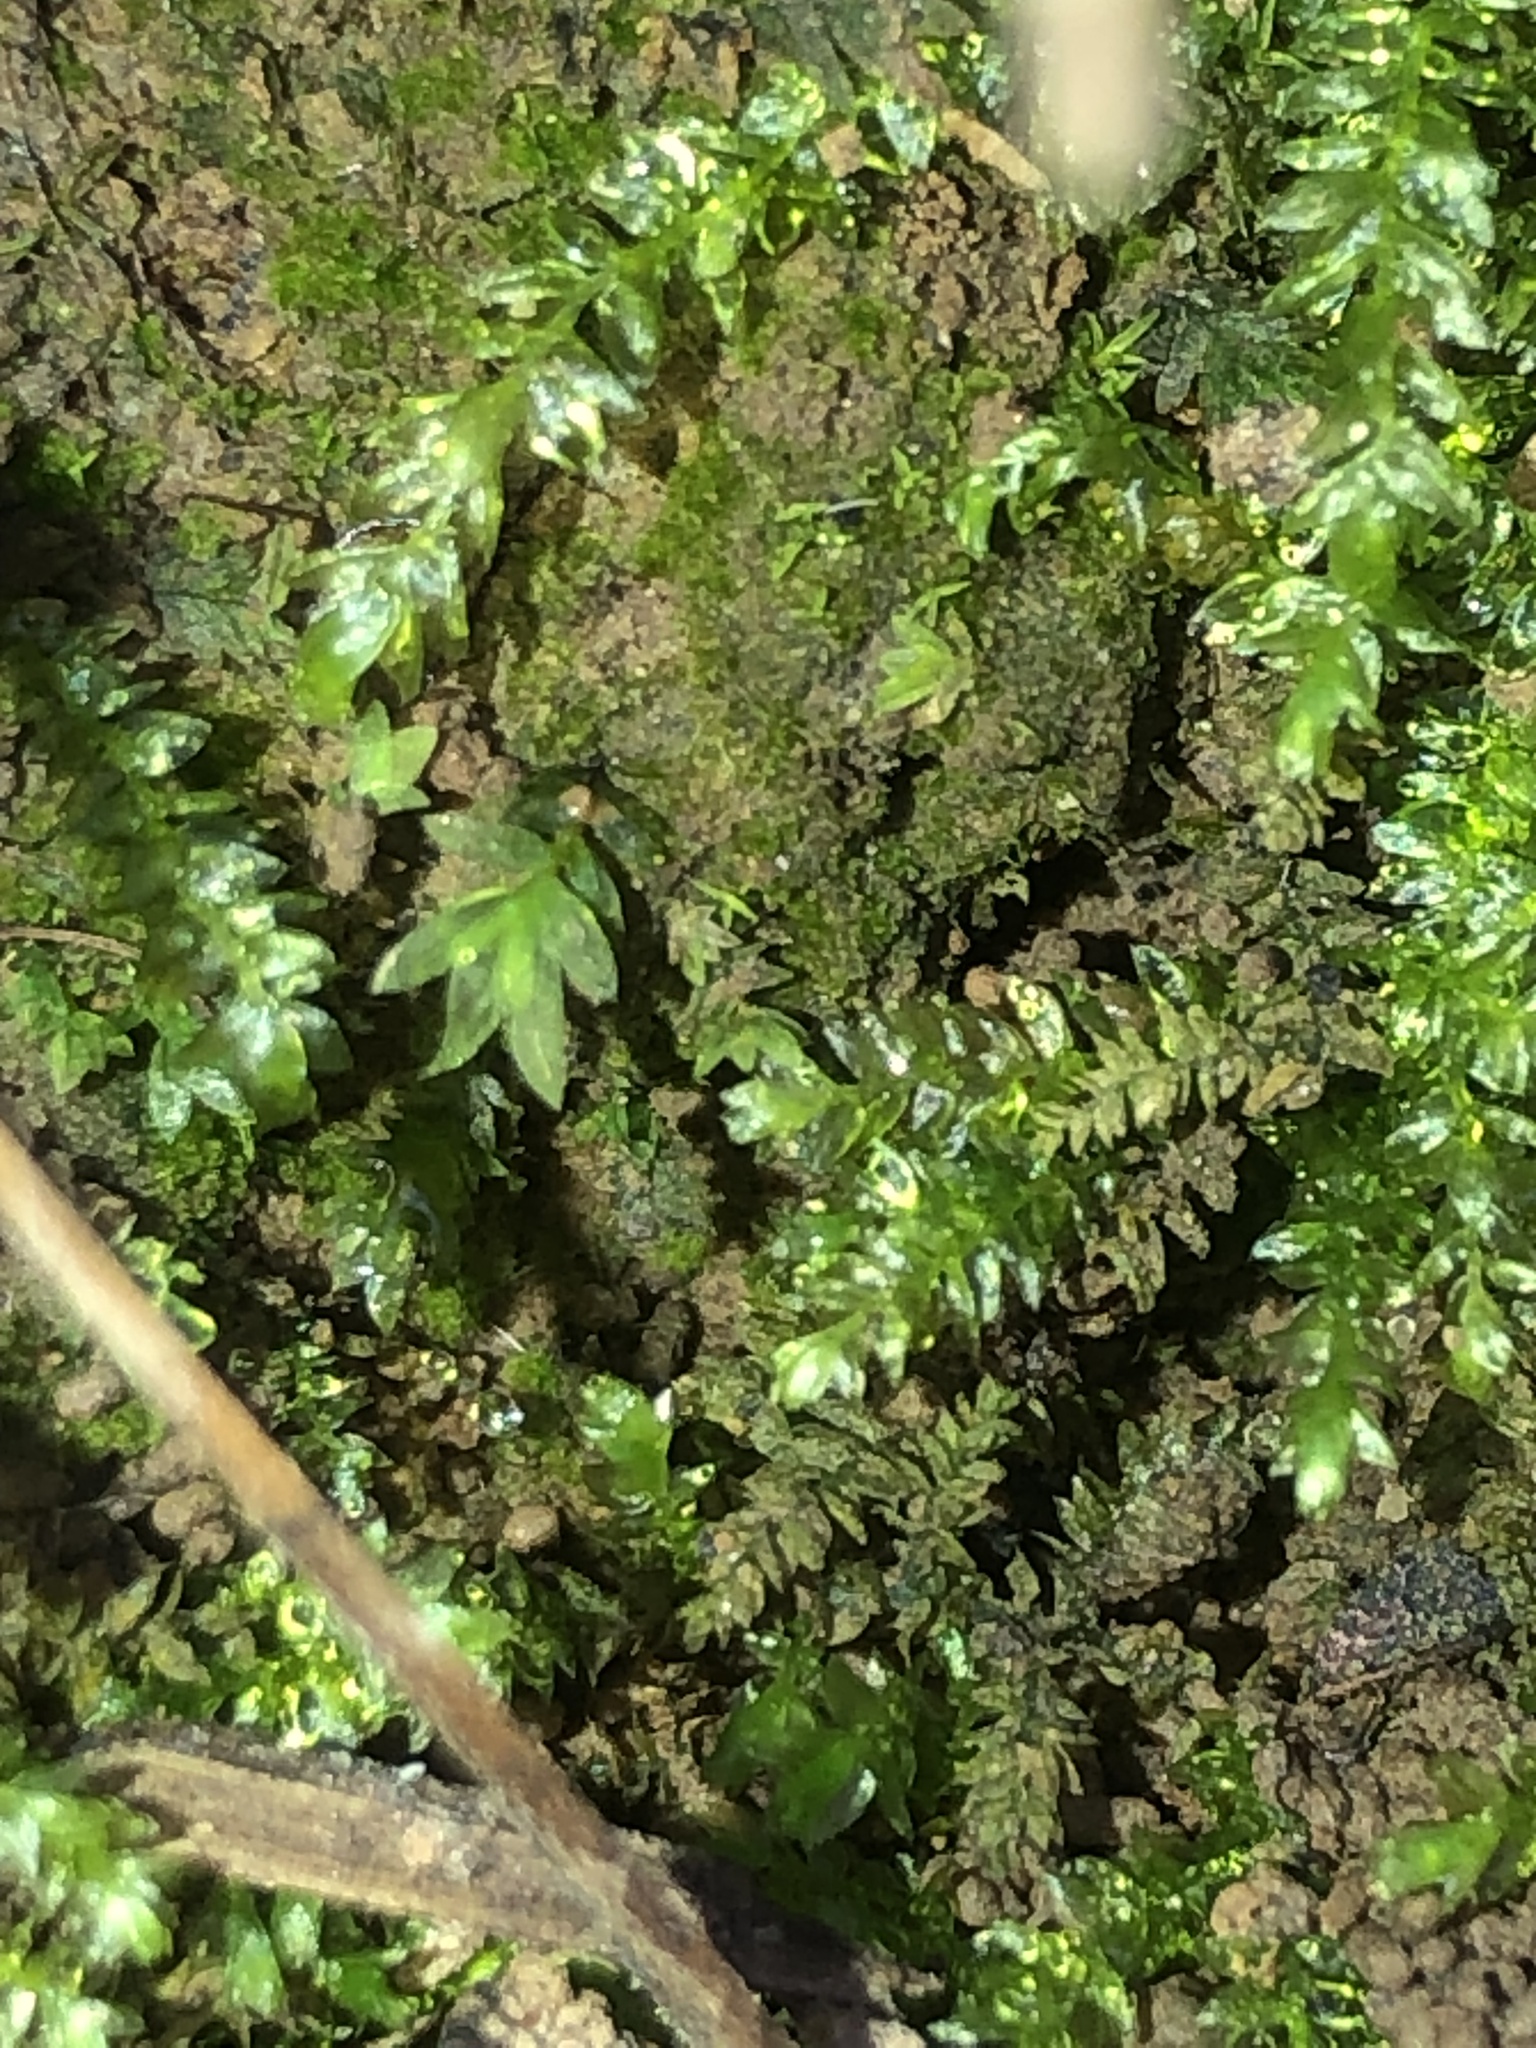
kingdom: Plantae
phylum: Bryophyta
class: Bryopsida
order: Dicranales
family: Fissidentaceae
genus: Fissidens
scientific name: Fissidens bryoides
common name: Lesser pocket moss
